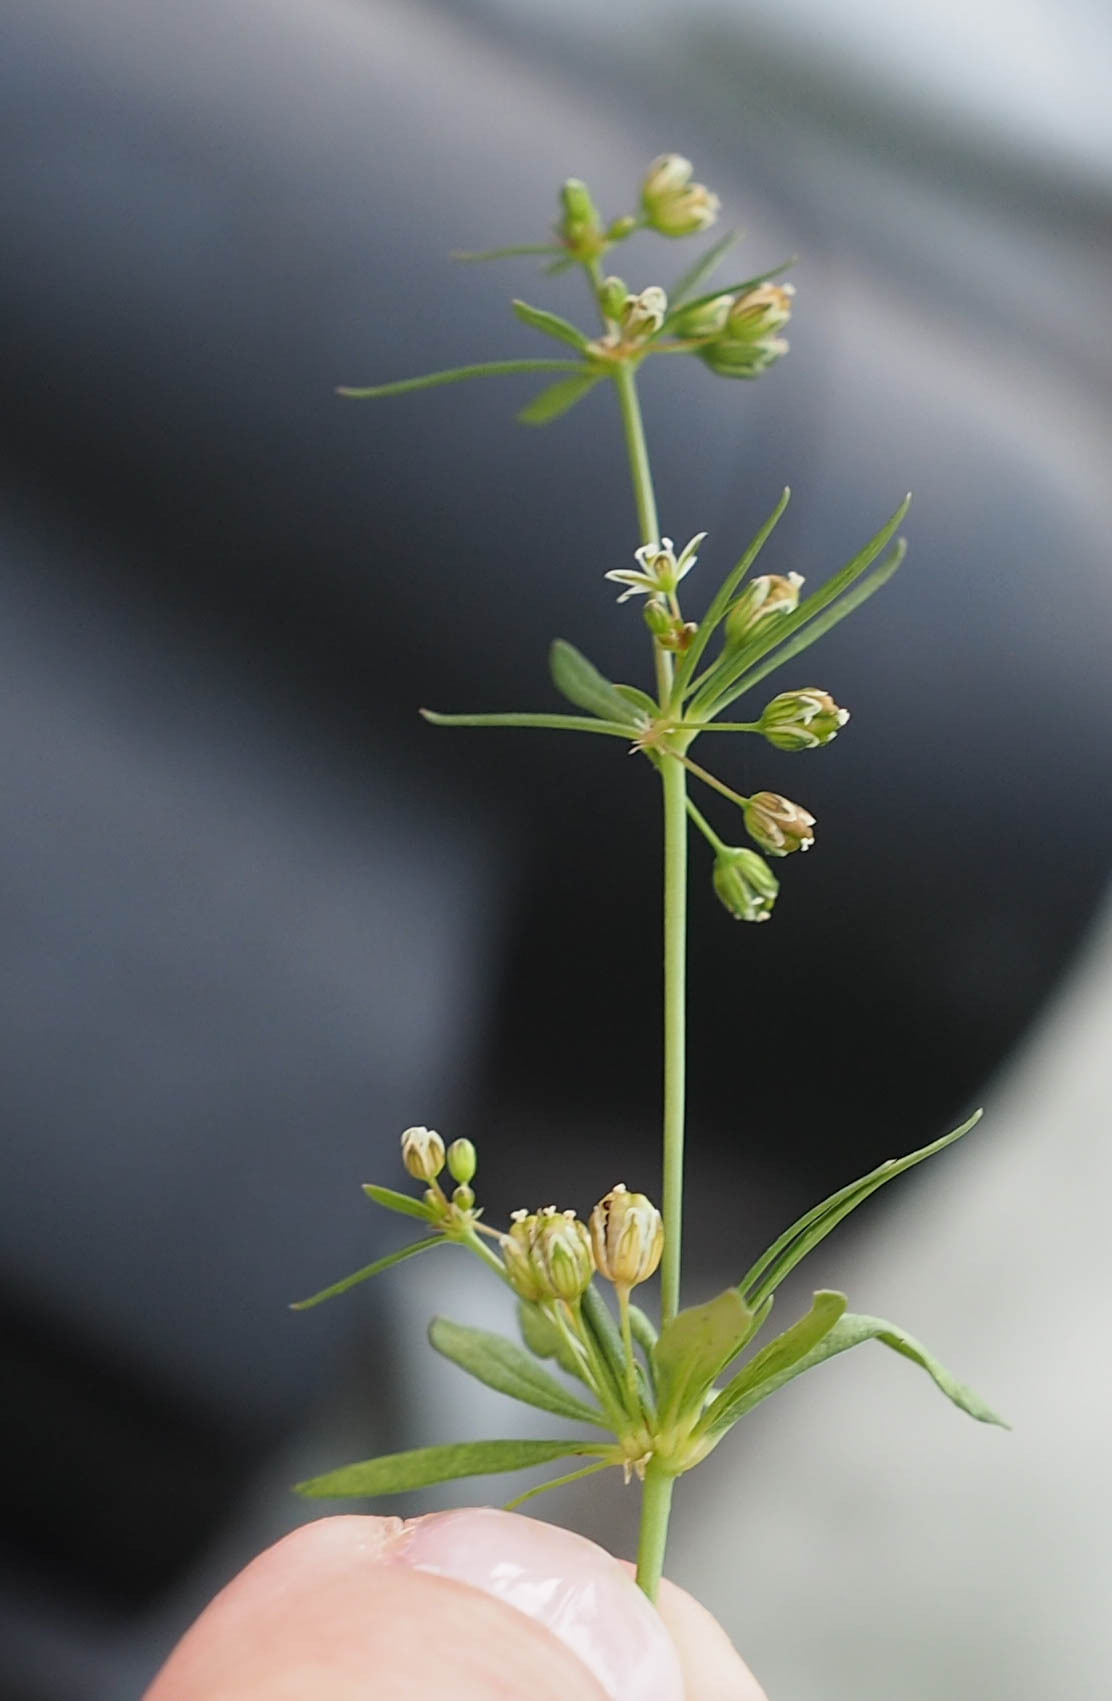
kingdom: Plantae
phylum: Tracheophyta
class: Magnoliopsida
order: Caryophyllales
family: Molluginaceae
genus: Mollugo
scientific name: Mollugo verticillata
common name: Green carpetweed
